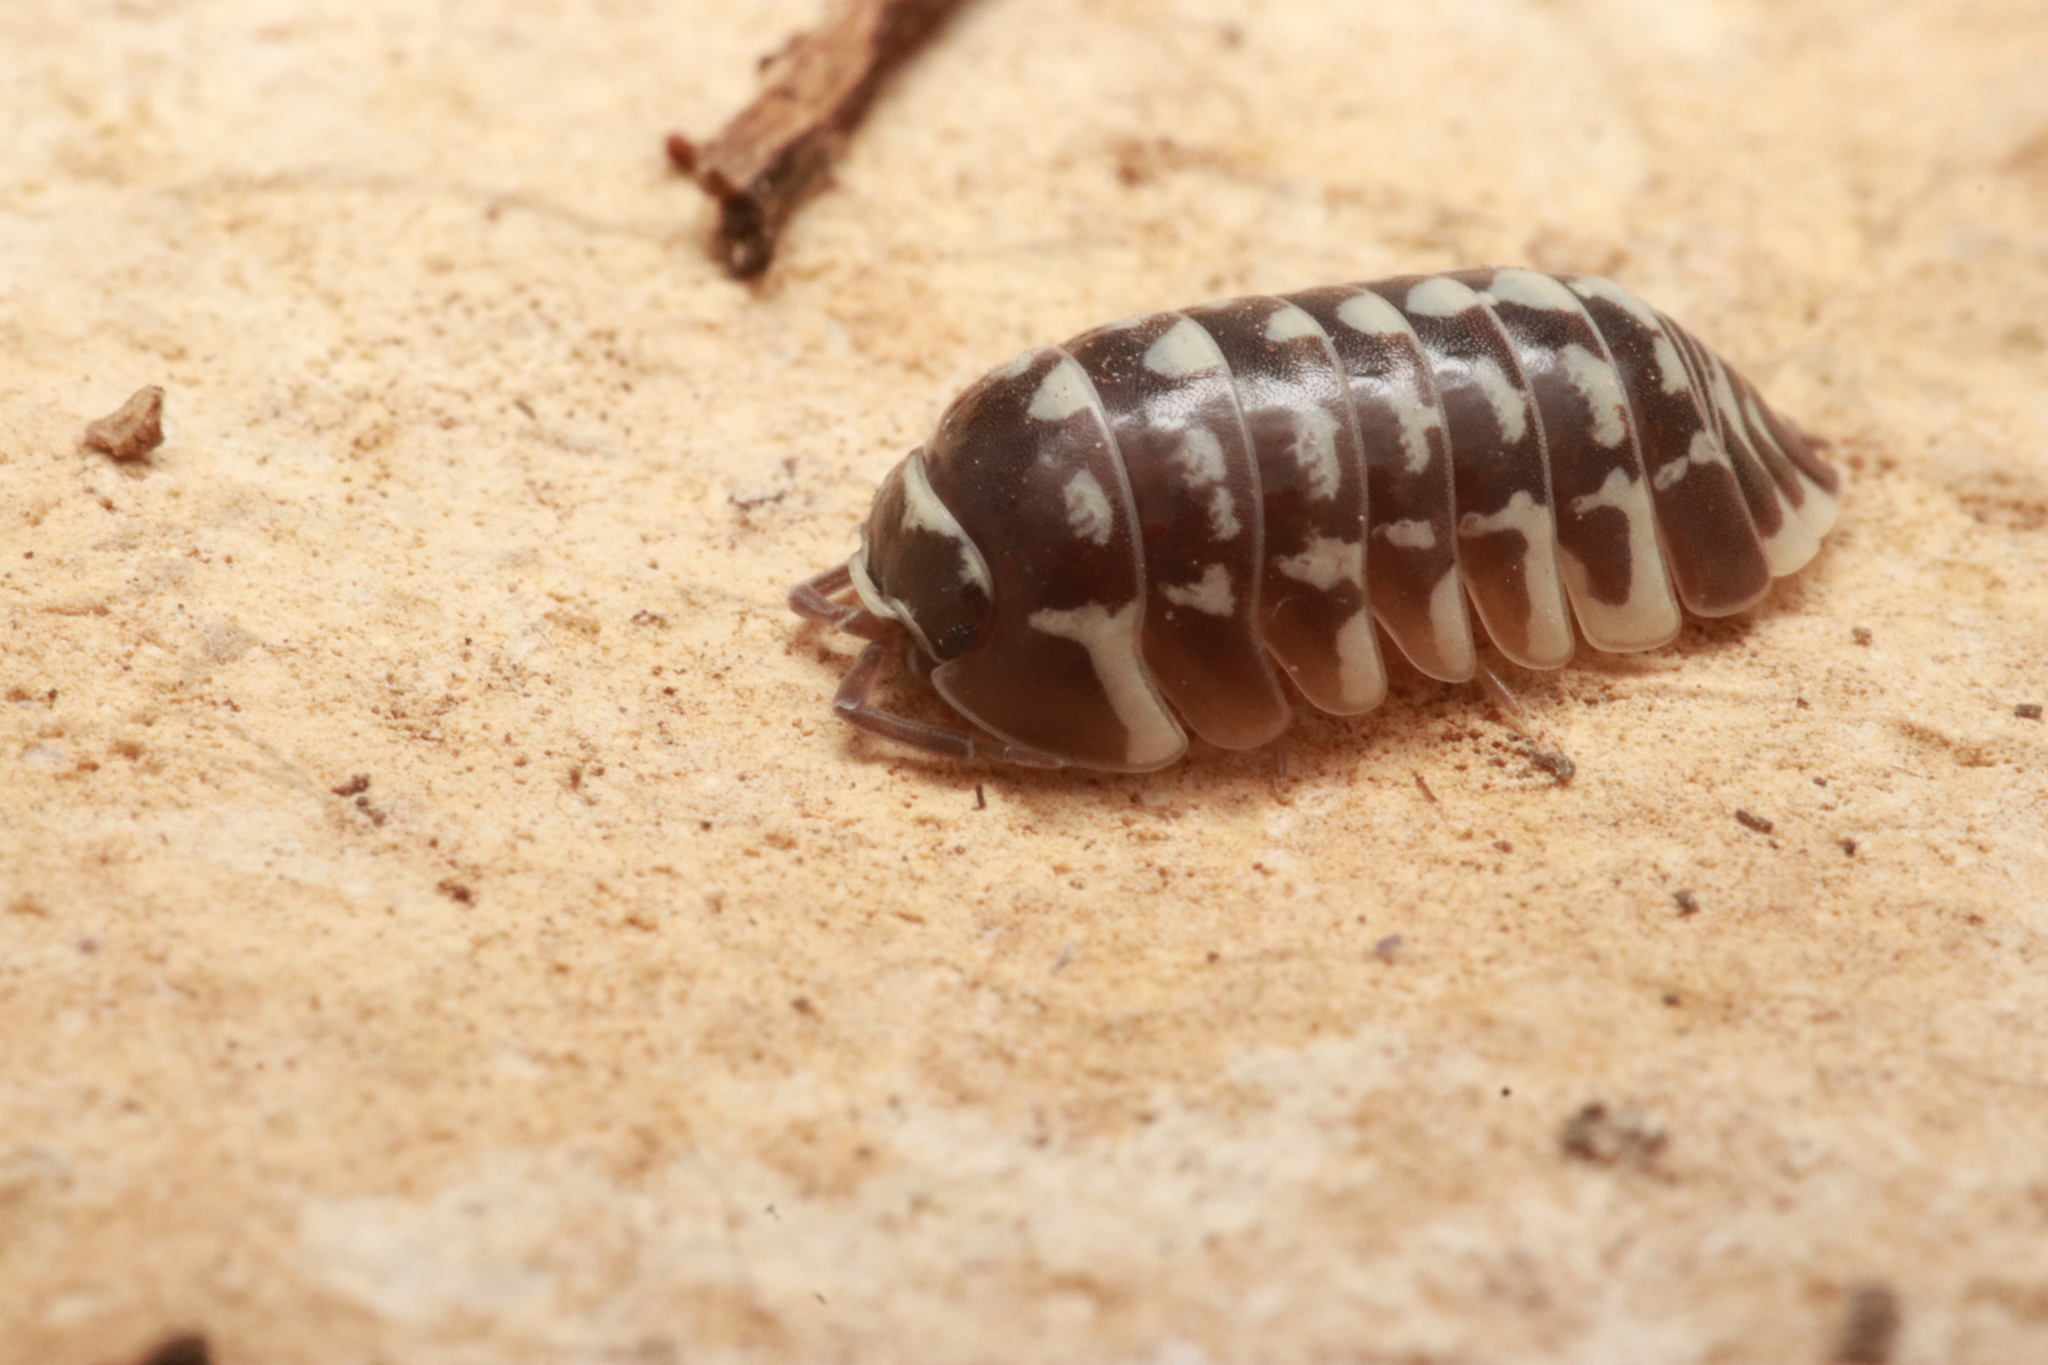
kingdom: Animalia
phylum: Arthropoda
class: Malacostraca
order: Isopoda
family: Armadillidiidae
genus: Armadillidium
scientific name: Armadillidium maculatum
